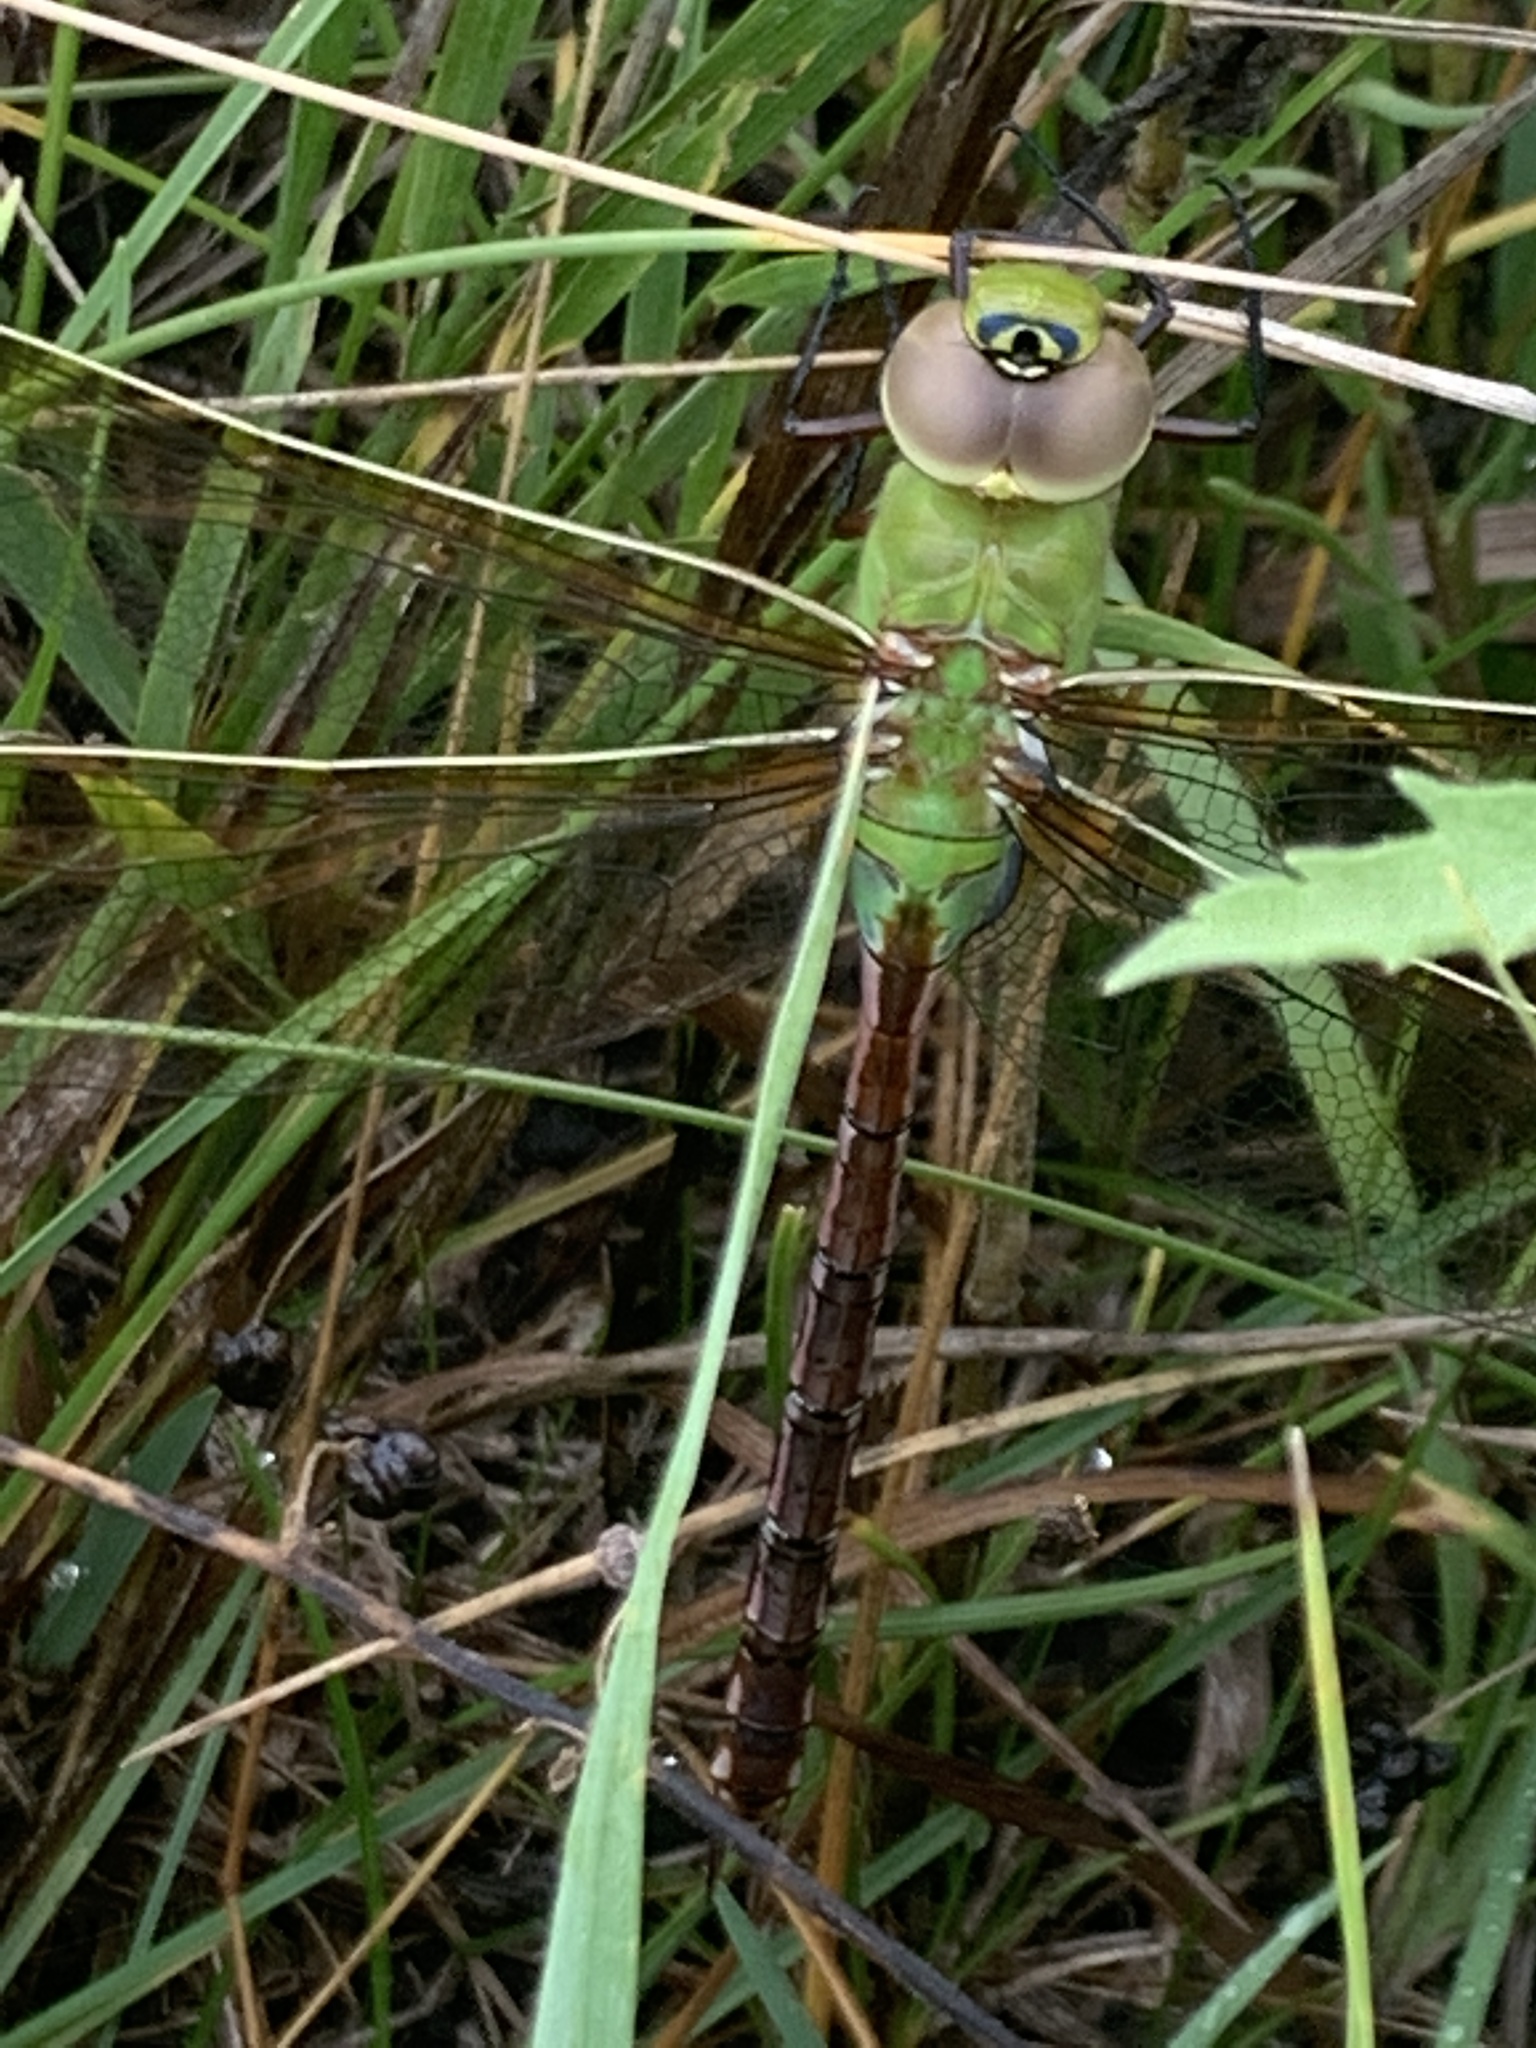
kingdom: Animalia
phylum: Arthropoda
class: Insecta
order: Odonata
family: Aeshnidae
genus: Anax
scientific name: Anax junius
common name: Common green darner
